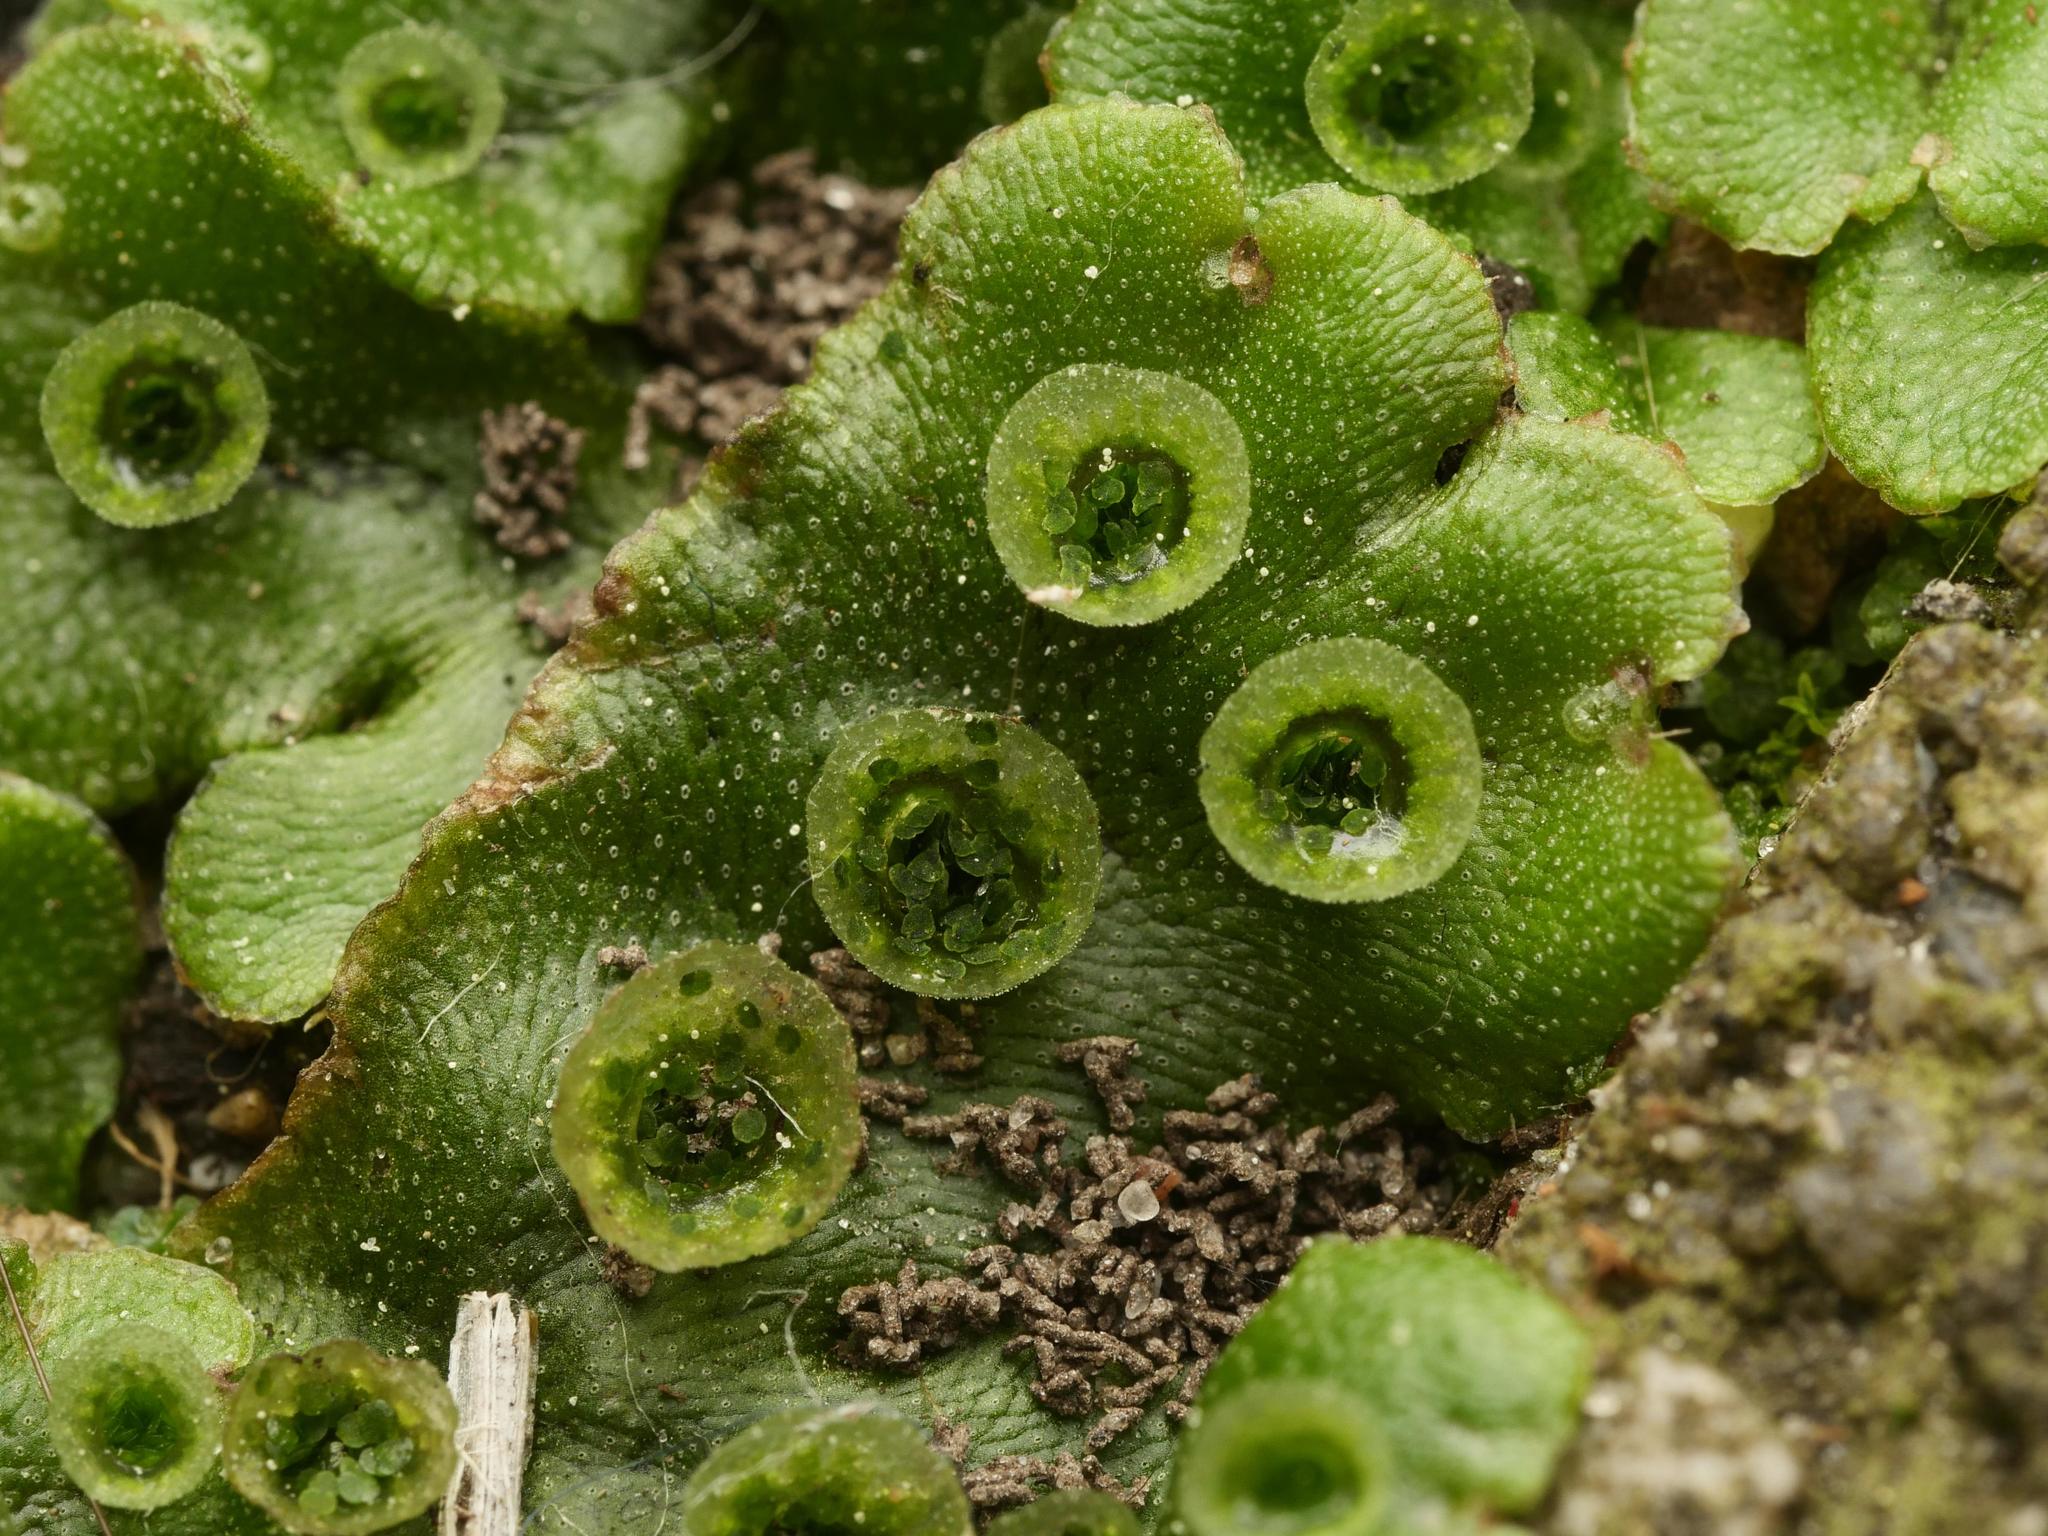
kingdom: Plantae
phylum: Marchantiophyta
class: Marchantiopsida
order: Marchantiales
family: Marchantiaceae
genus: Marchantia
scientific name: Marchantia polymorpha
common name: Common liverwort
